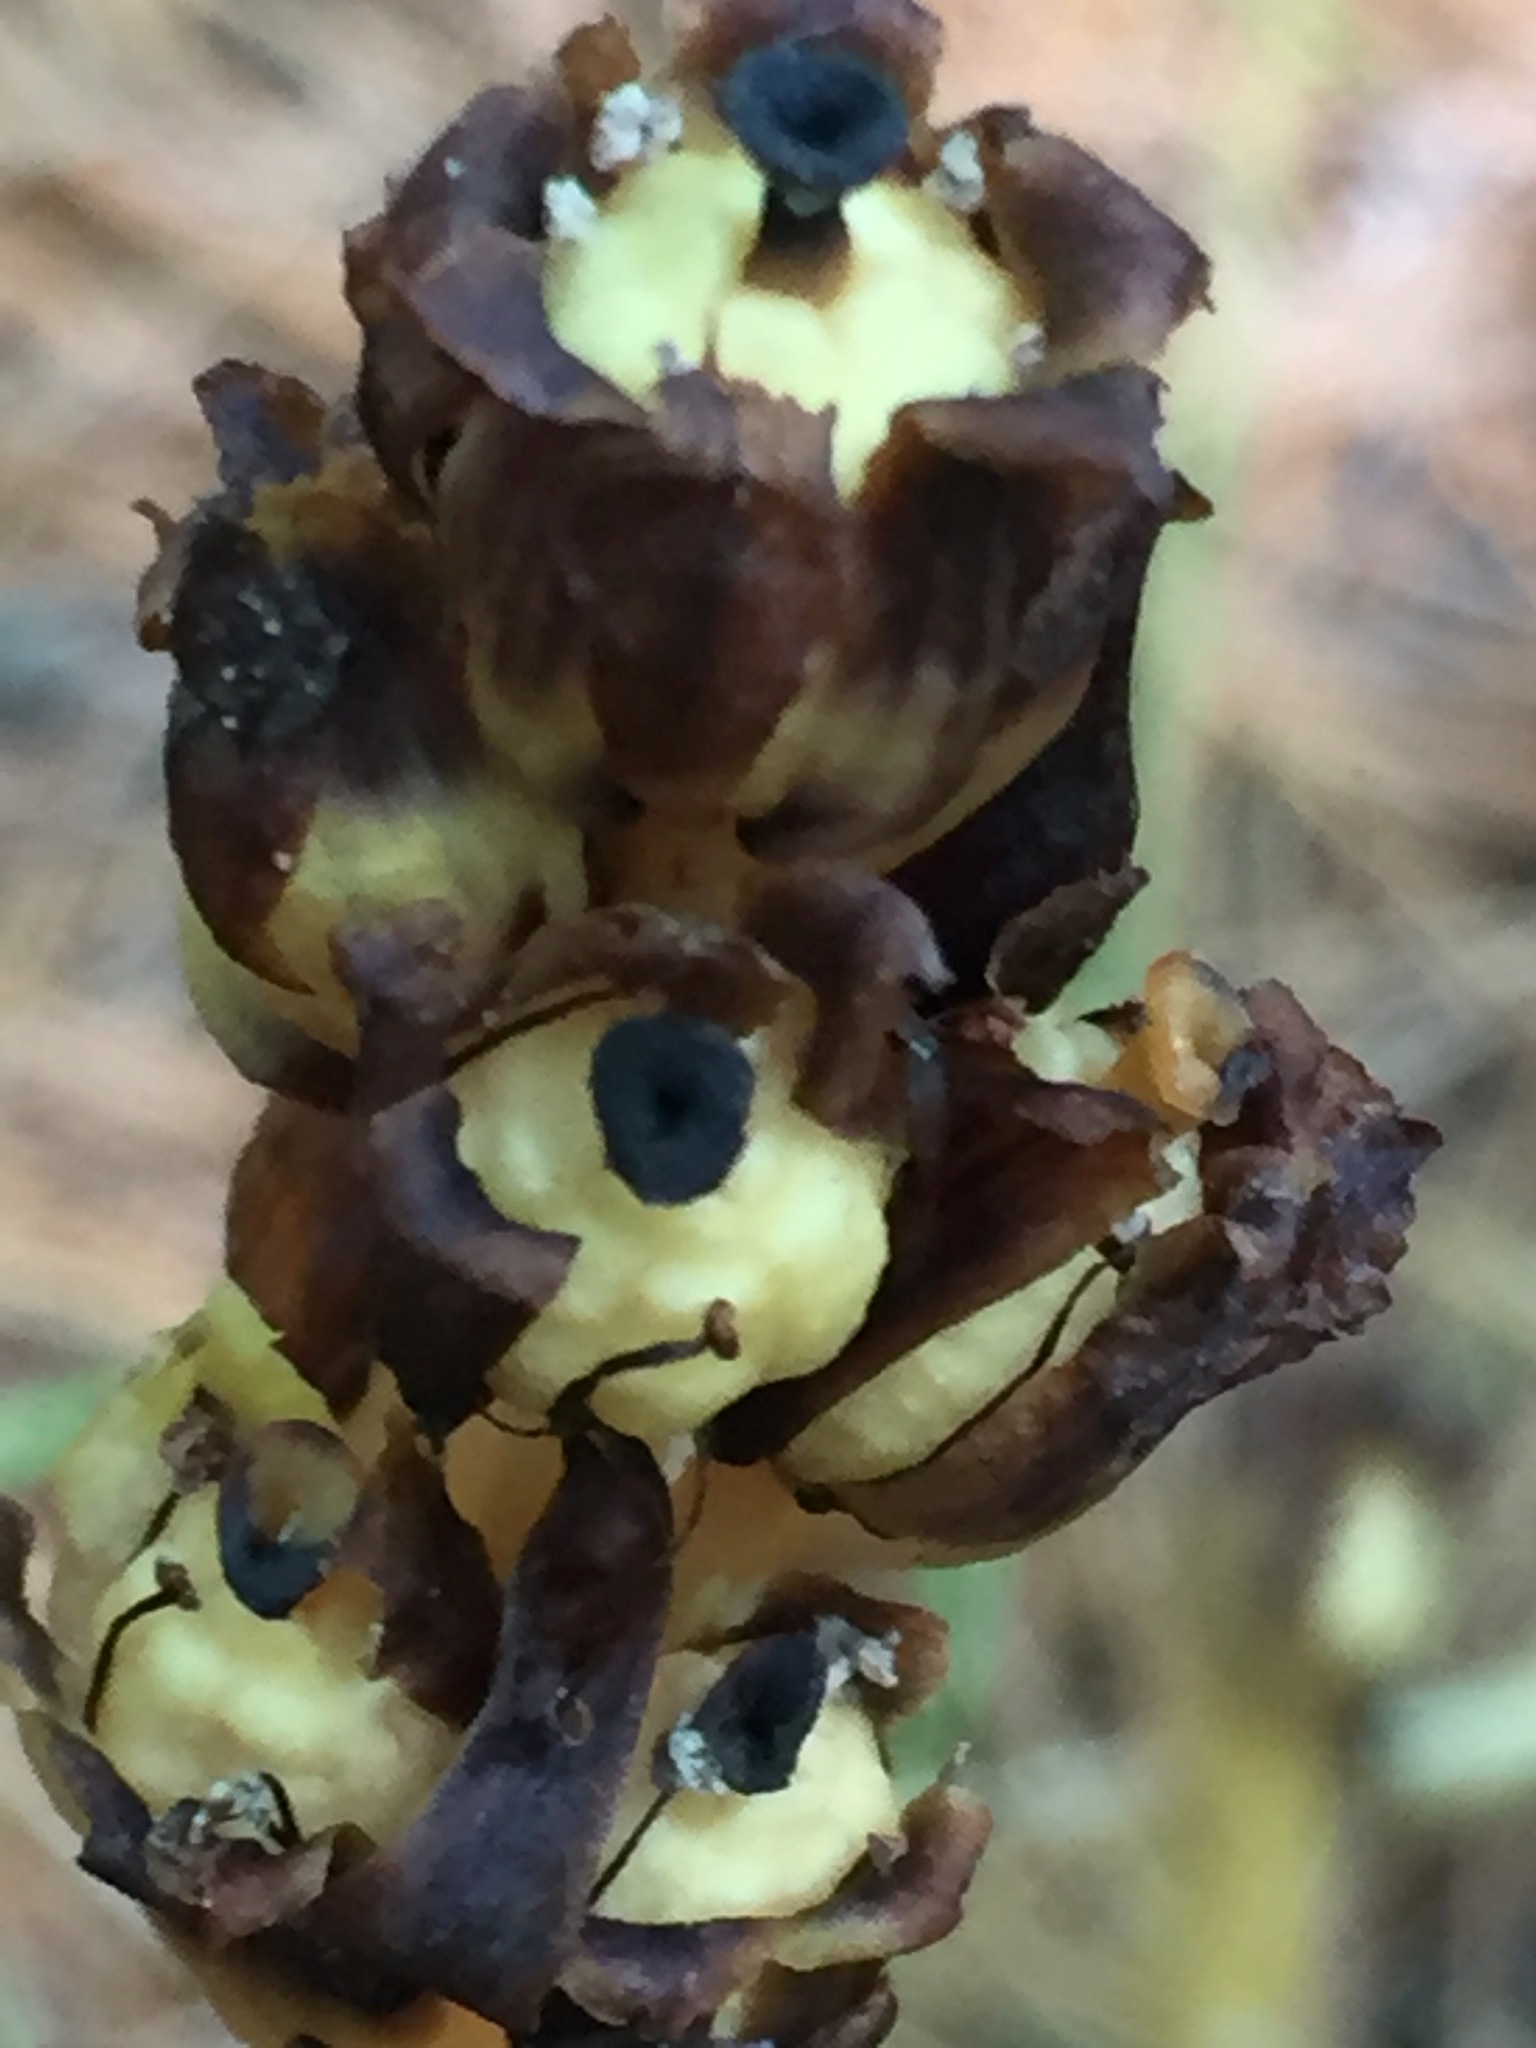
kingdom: Plantae
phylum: Tracheophyta
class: Magnoliopsida
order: Ericales
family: Ericaceae
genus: Hypopitys
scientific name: Hypopitys monotropa
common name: Yellow bird's-nest
